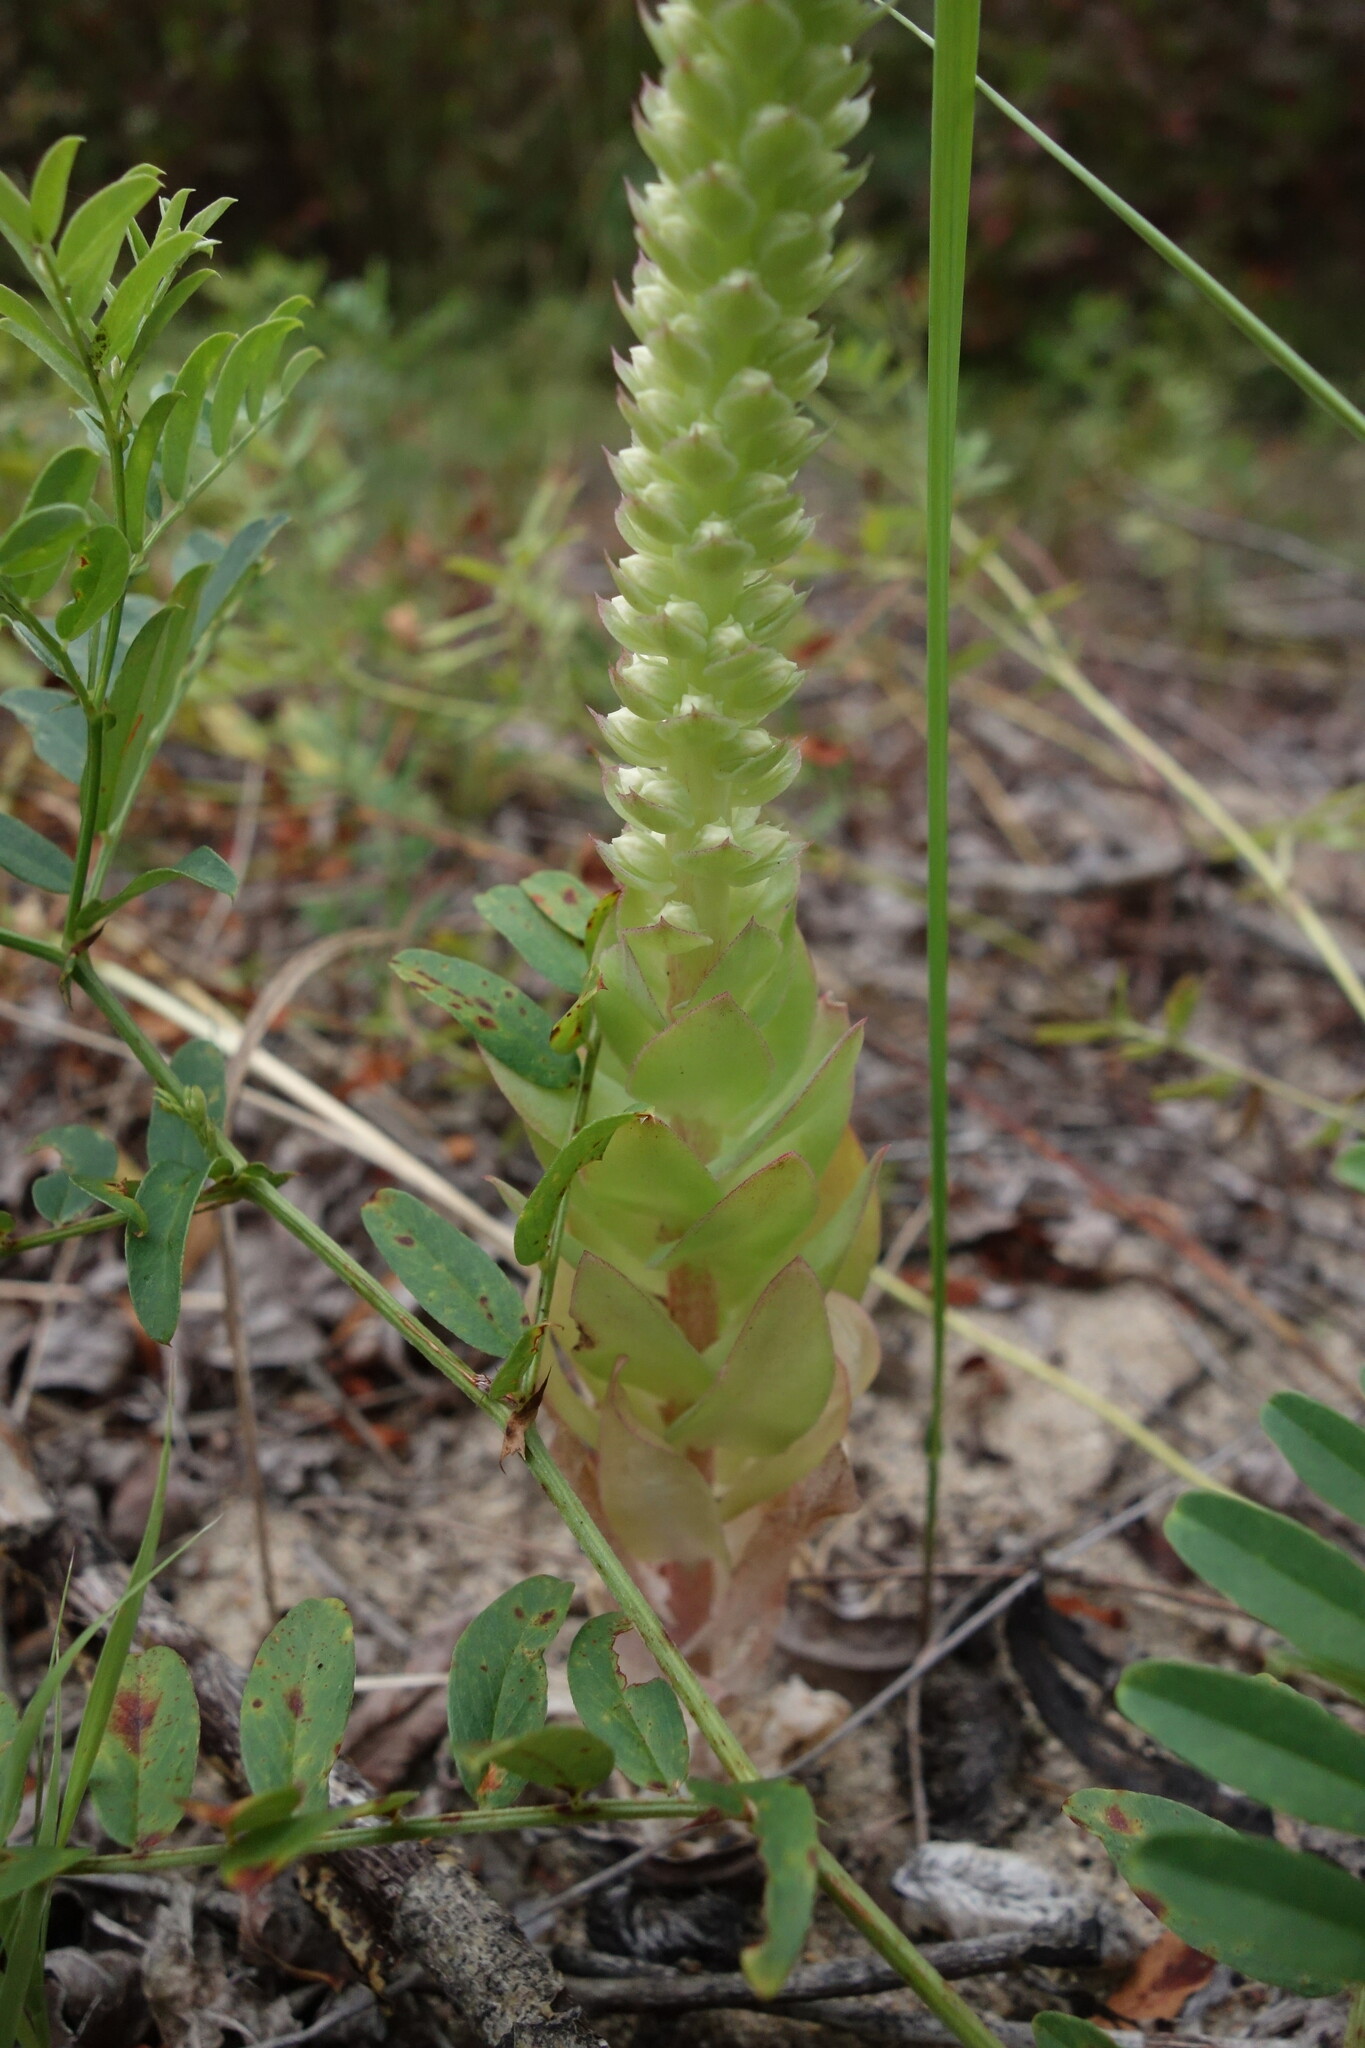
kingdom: Plantae
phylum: Tracheophyta
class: Magnoliopsida
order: Saxifragales
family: Crassulaceae
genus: Orostachys
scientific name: Orostachys malacophylla
